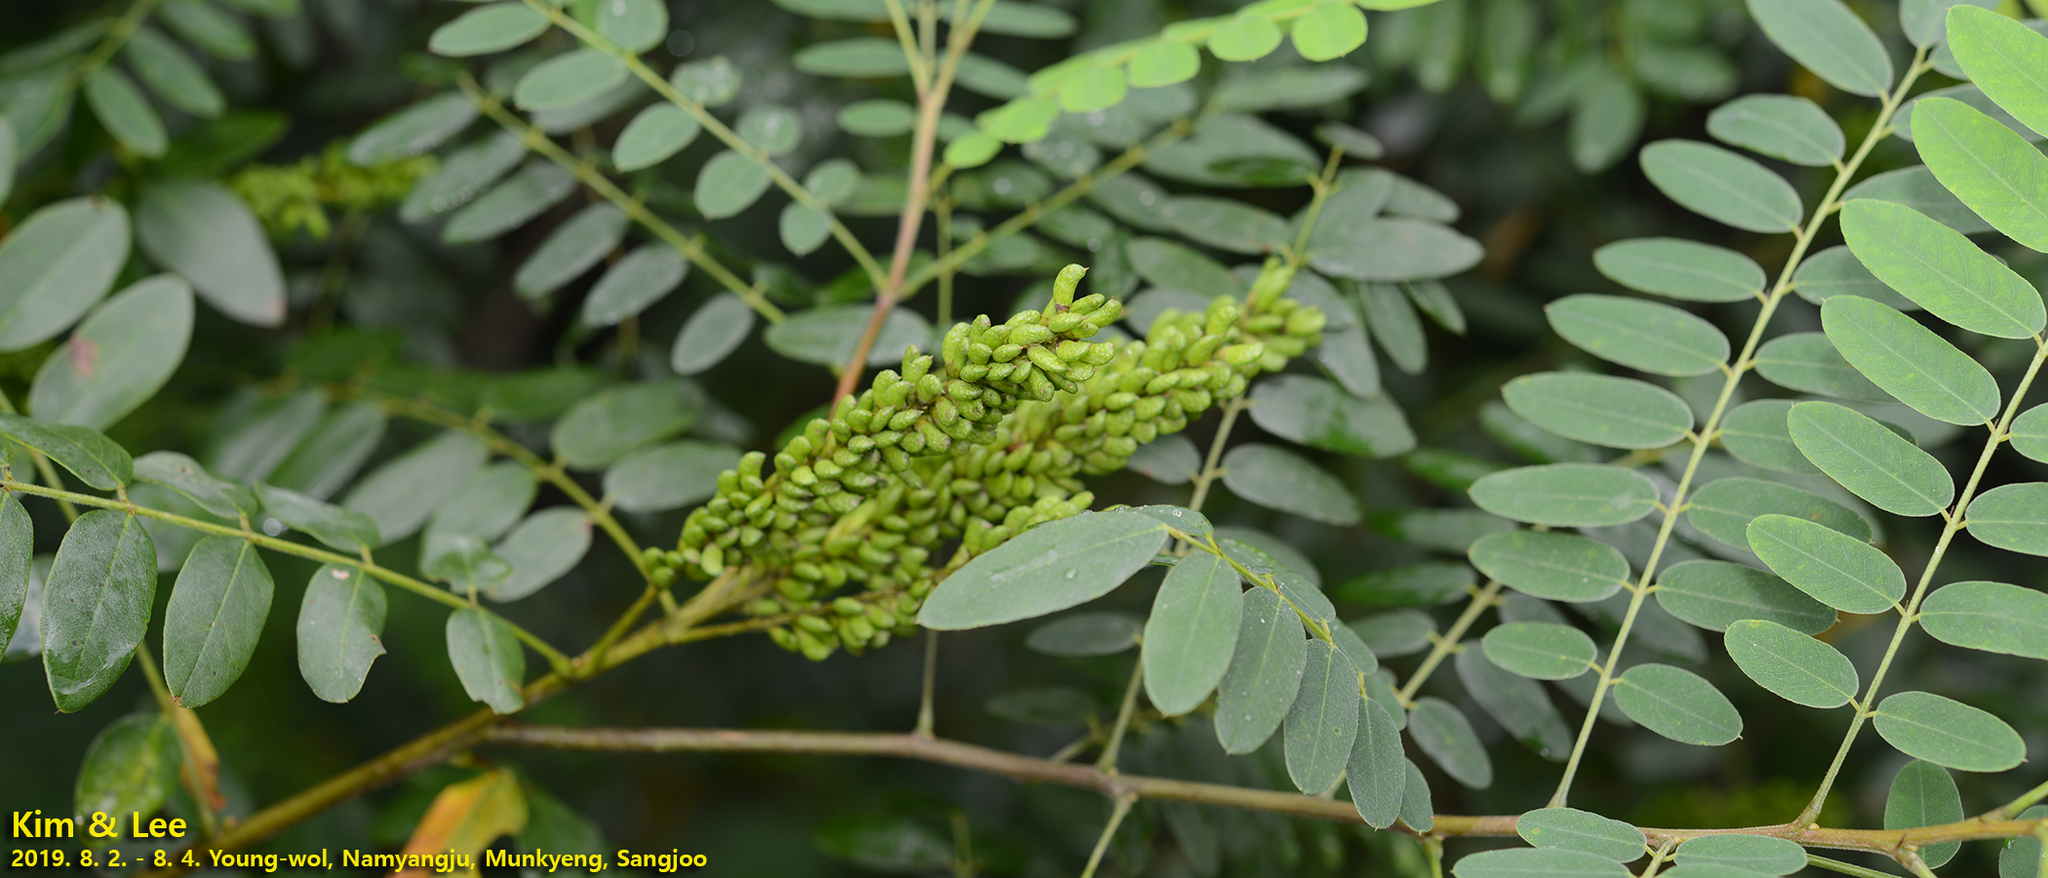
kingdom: Plantae
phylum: Tracheophyta
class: Magnoliopsida
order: Fabales
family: Fabaceae
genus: Amorpha
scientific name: Amorpha fruticosa
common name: False indigo
